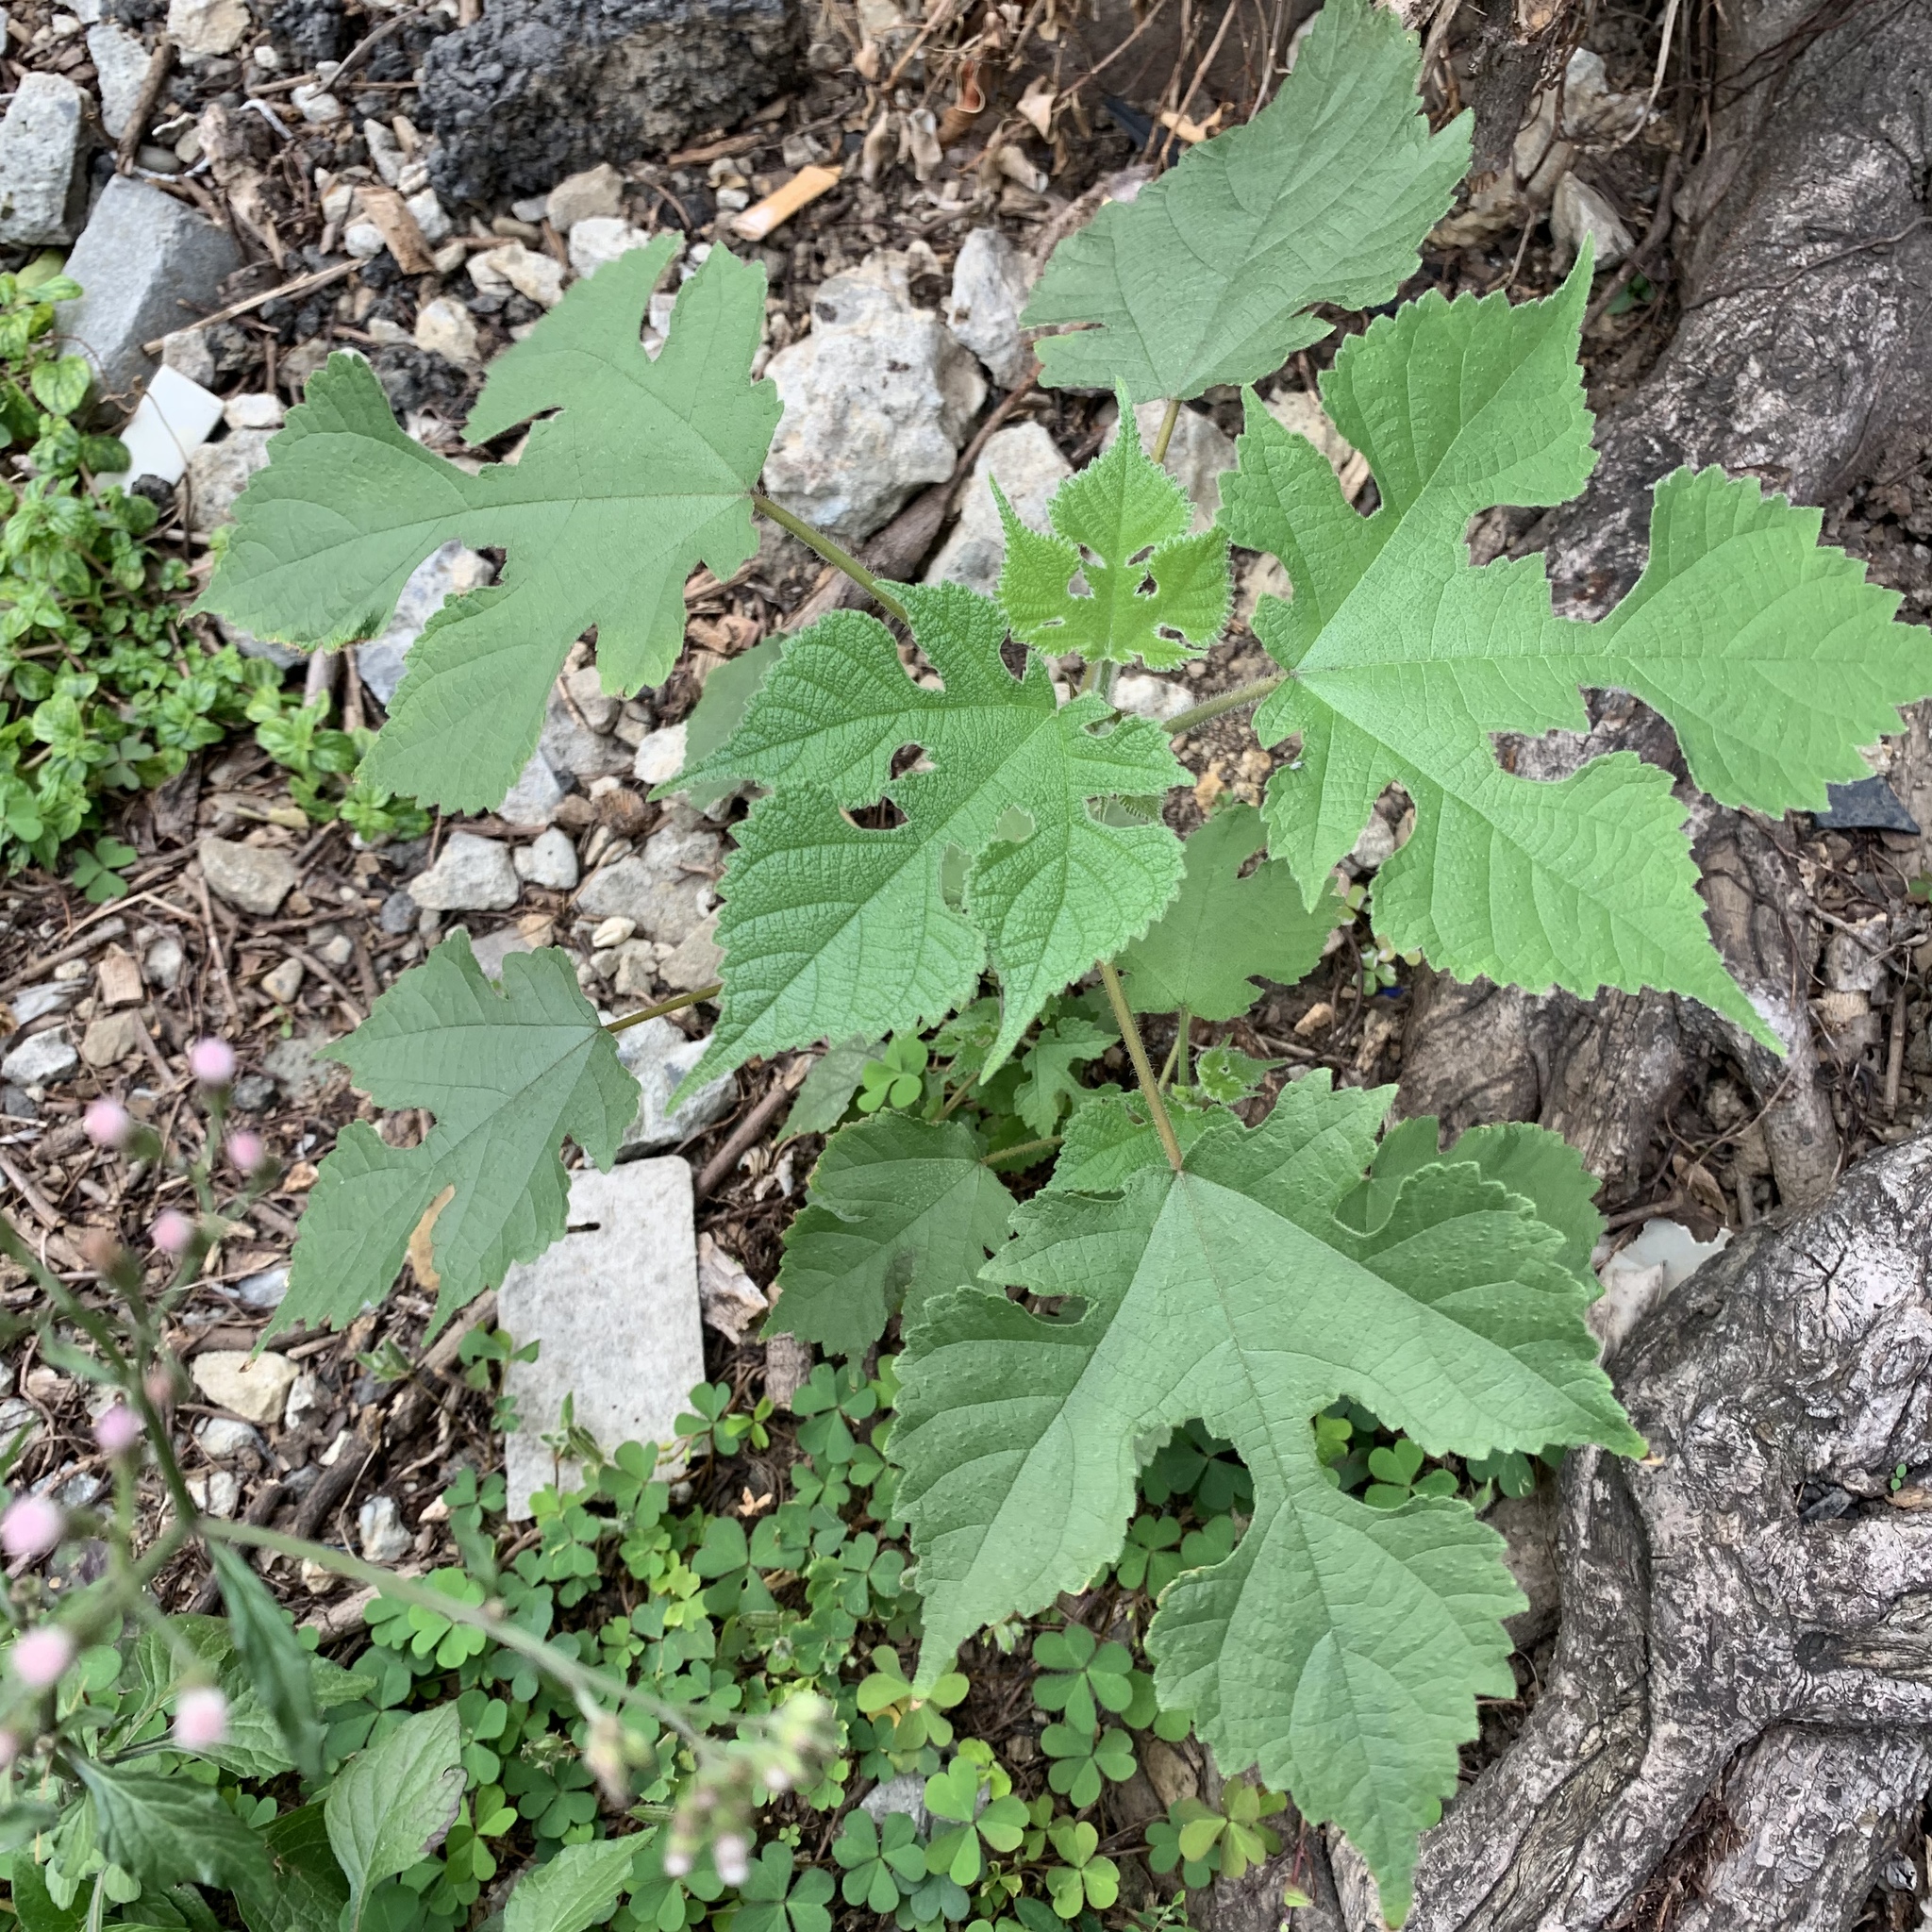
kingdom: Plantae
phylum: Tracheophyta
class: Magnoliopsida
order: Rosales
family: Moraceae
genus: Broussonetia
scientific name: Broussonetia papyrifera
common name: Paper mulberry
